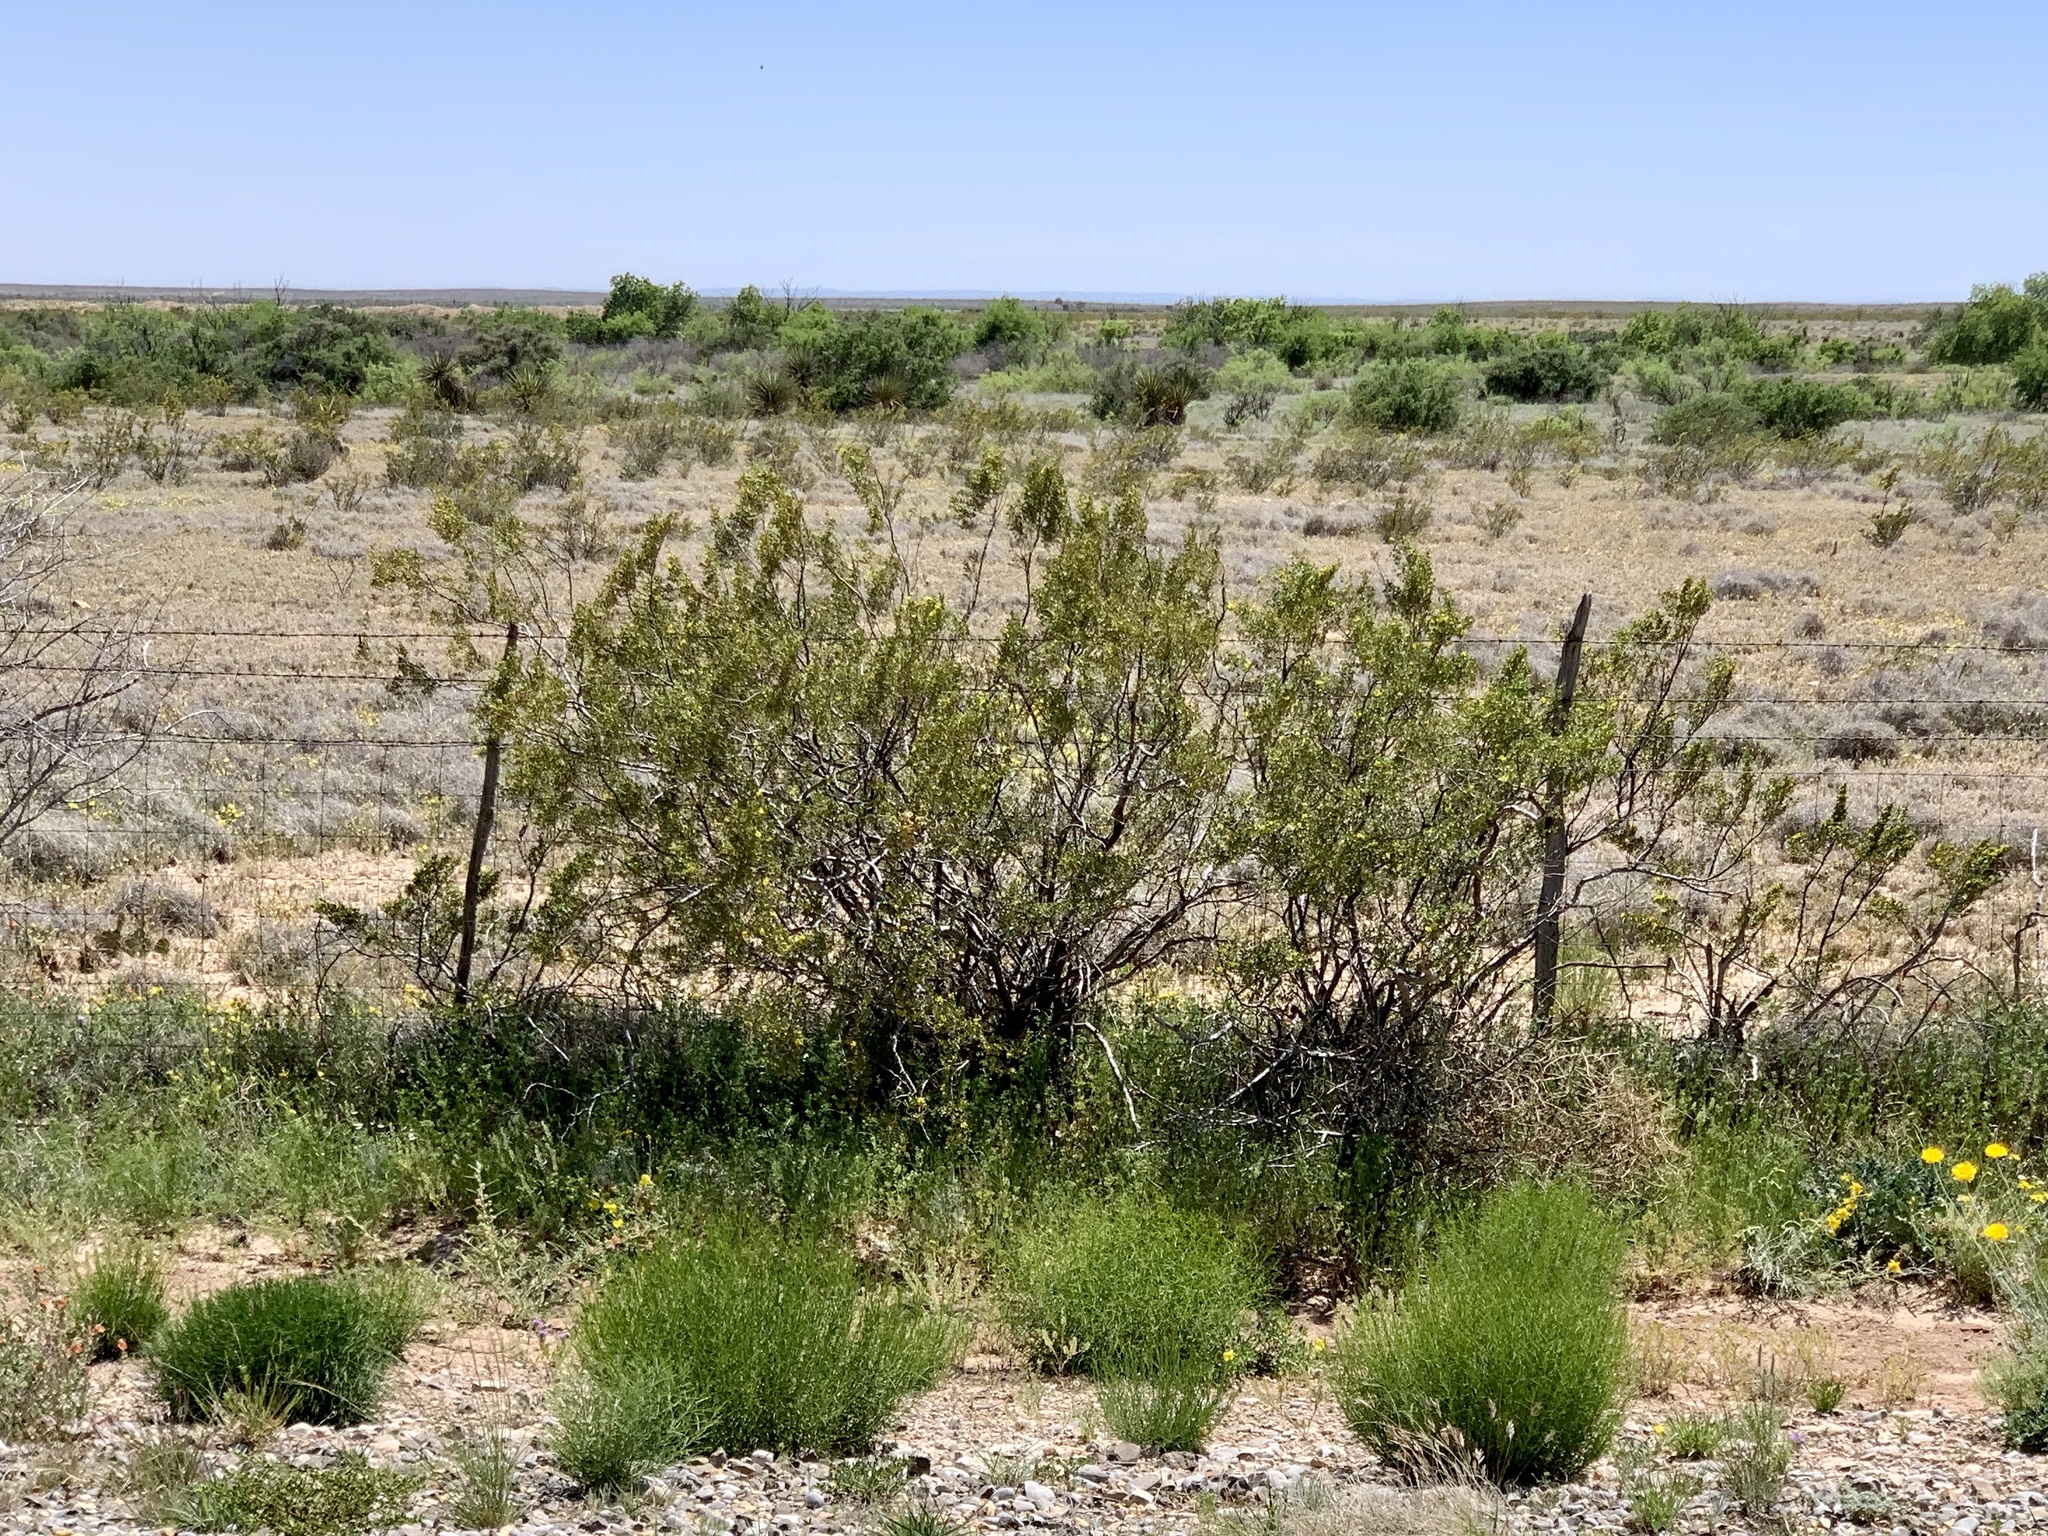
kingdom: Plantae
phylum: Tracheophyta
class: Magnoliopsida
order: Zygophyllales
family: Zygophyllaceae
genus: Larrea
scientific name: Larrea tridentata
